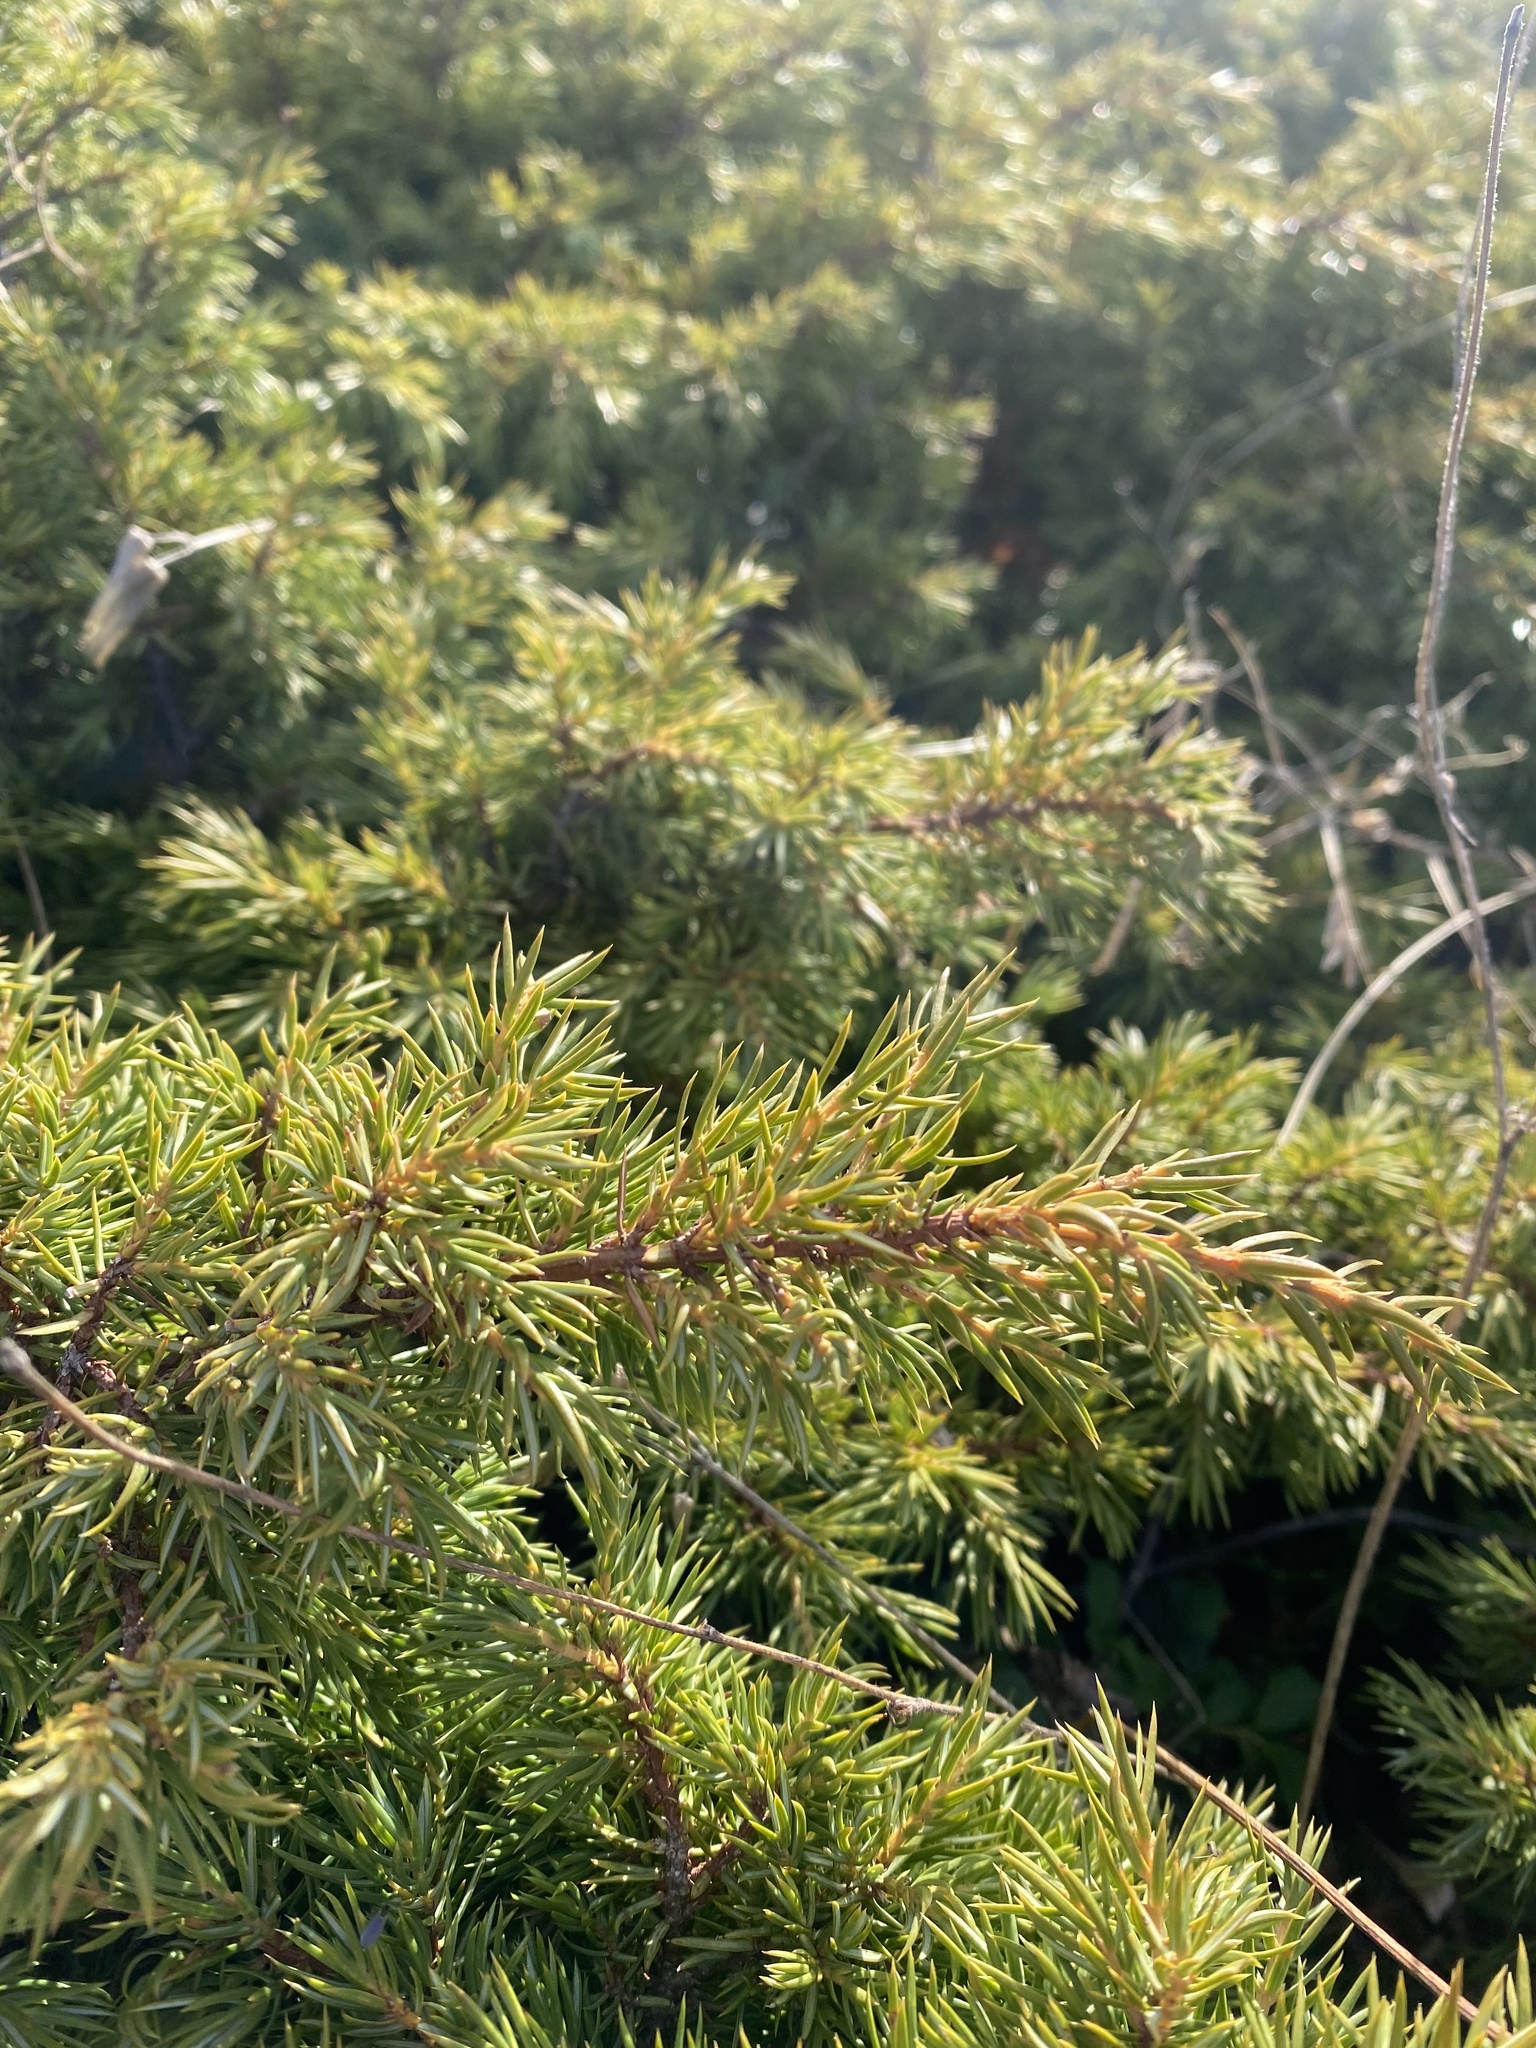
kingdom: Plantae
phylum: Tracheophyta
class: Pinopsida
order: Pinales
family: Cupressaceae
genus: Juniperus
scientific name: Juniperus communis
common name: Common juniper
